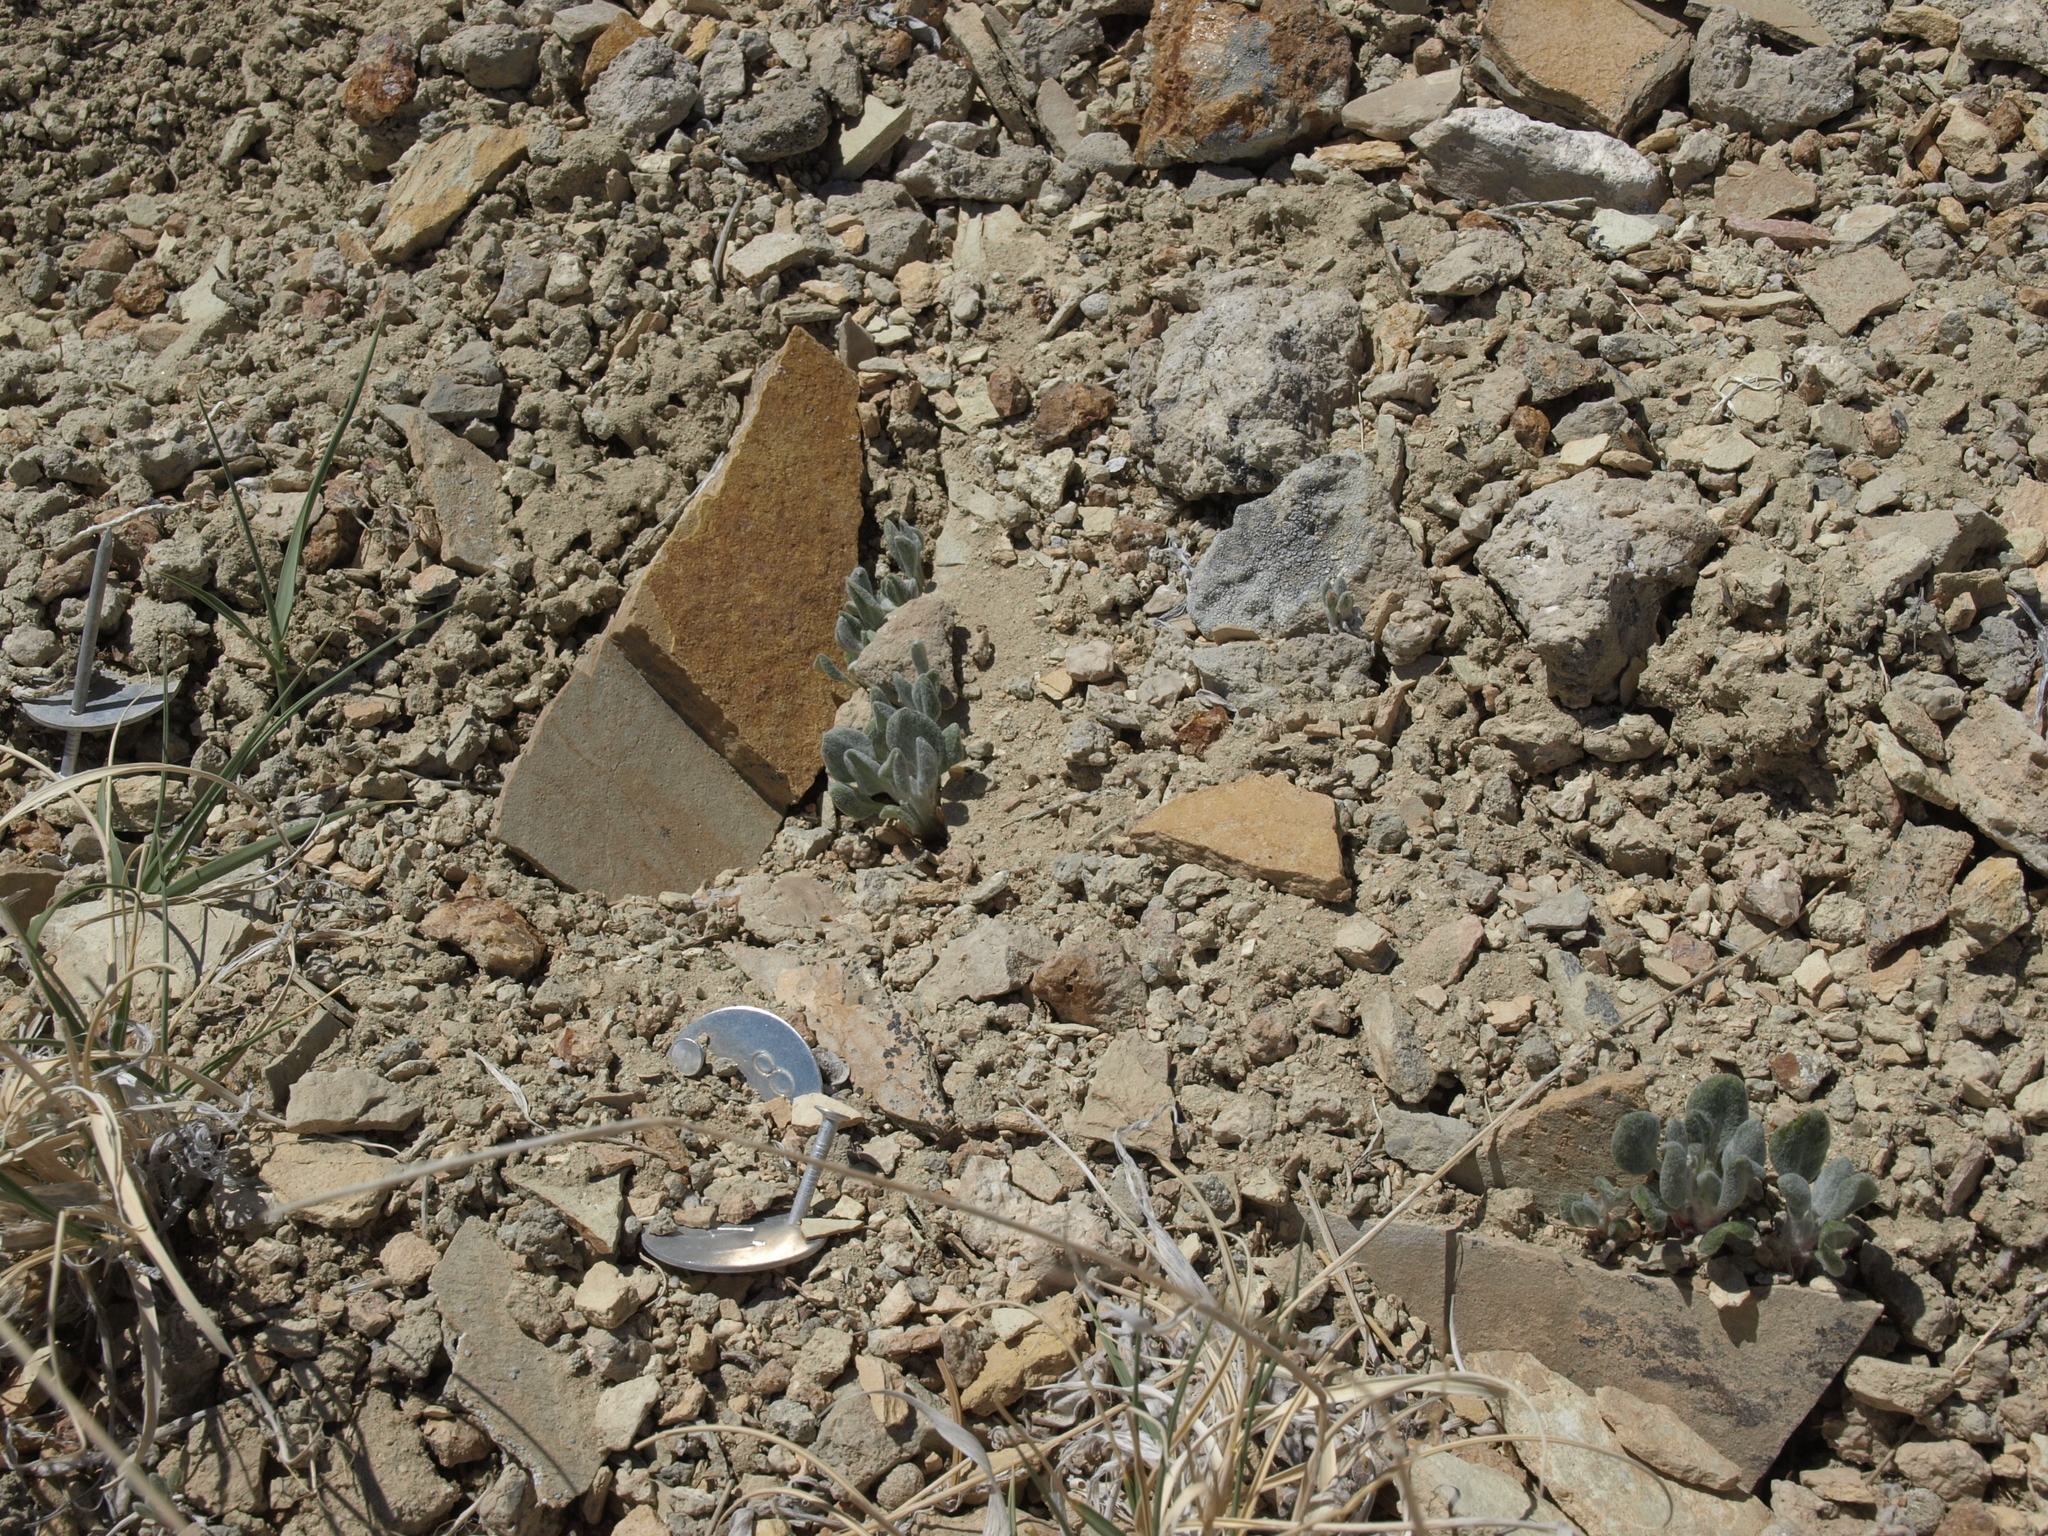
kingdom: Plantae
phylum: Tracheophyta
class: Magnoliopsida
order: Caryophyllales
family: Polygonaceae
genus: Eriogonum
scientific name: Eriogonum tiehmii
